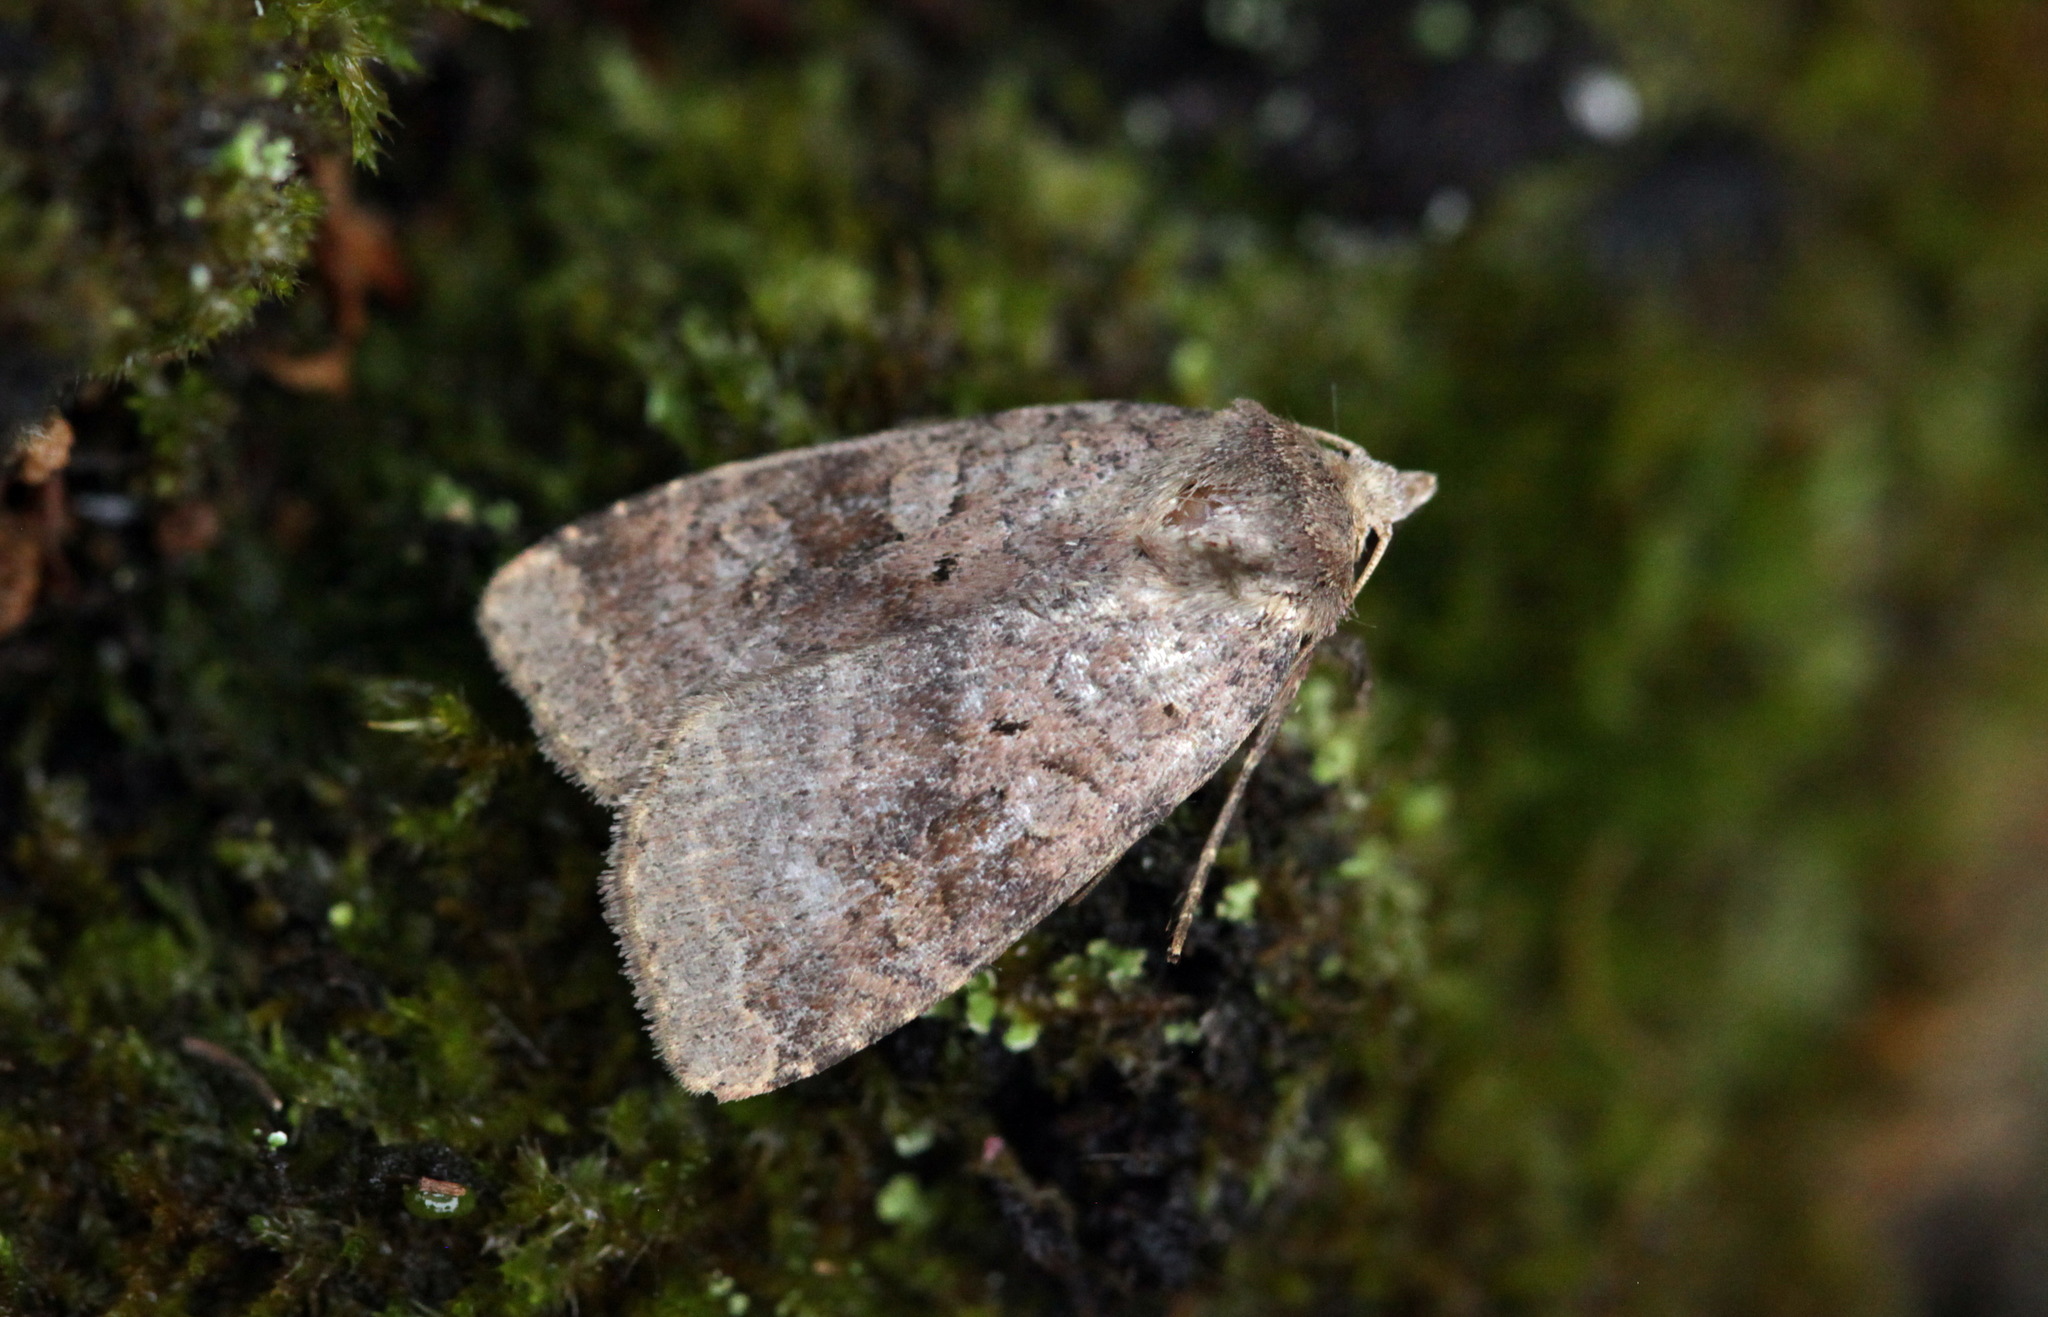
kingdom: Animalia
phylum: Arthropoda
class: Insecta
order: Lepidoptera
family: Noctuidae
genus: Diarsia
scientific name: Diarsia dahlii
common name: Barred chestnut
